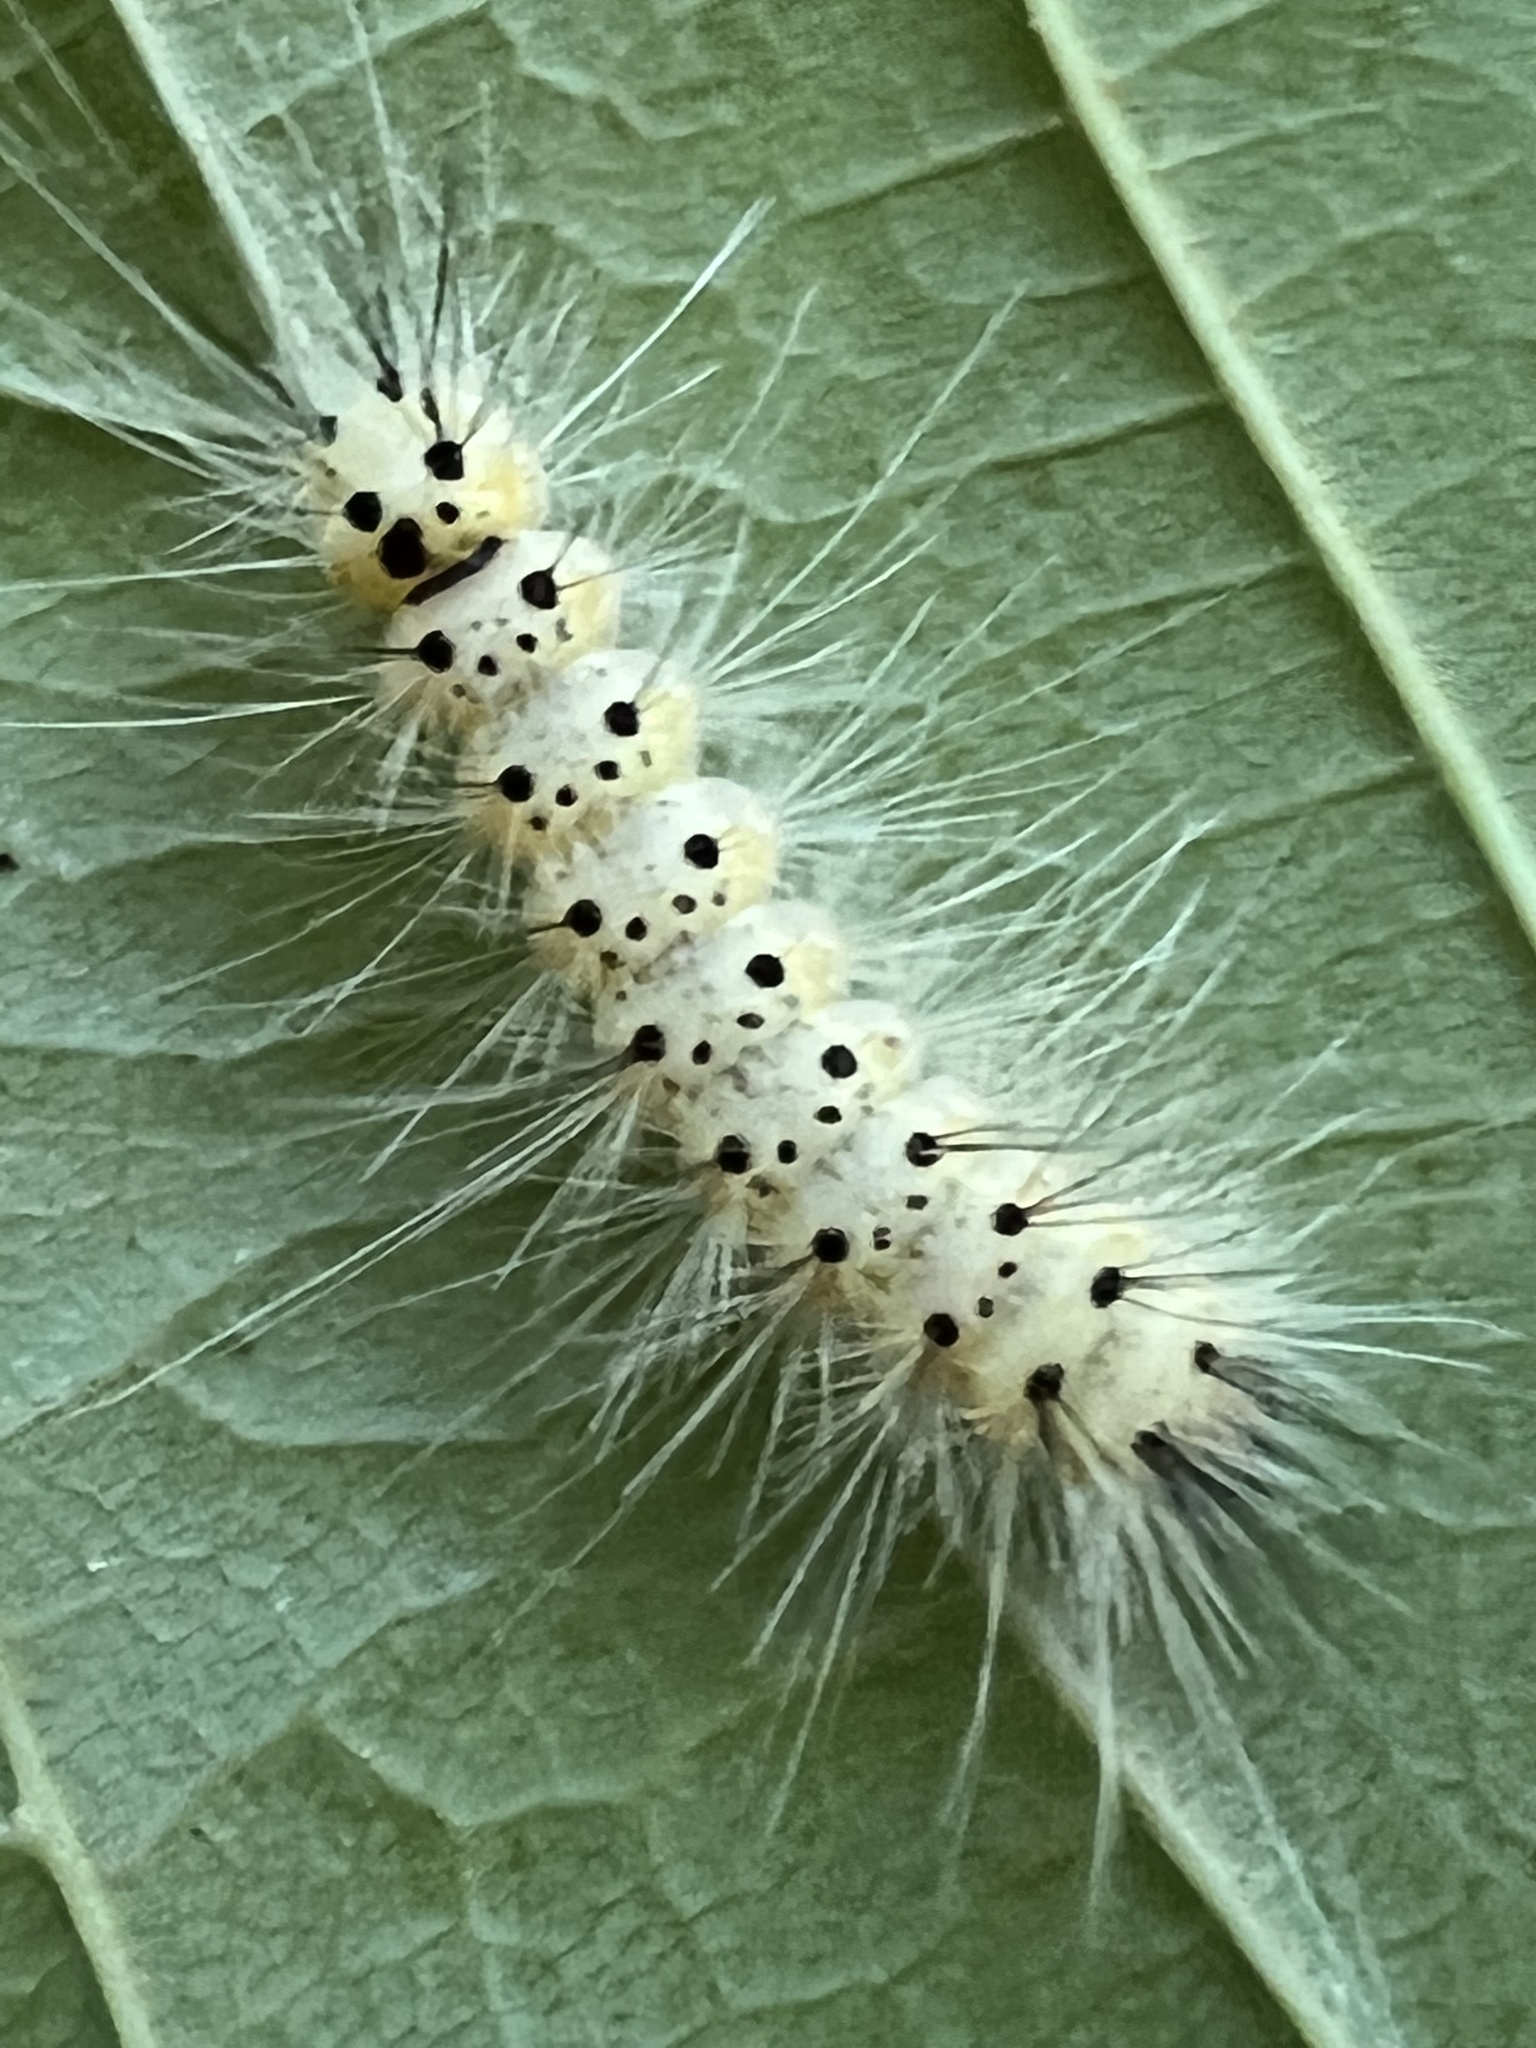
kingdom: Animalia
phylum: Arthropoda
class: Insecta
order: Lepidoptera
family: Erebidae
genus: Hyphantria
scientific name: Hyphantria cunea
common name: American white moth
